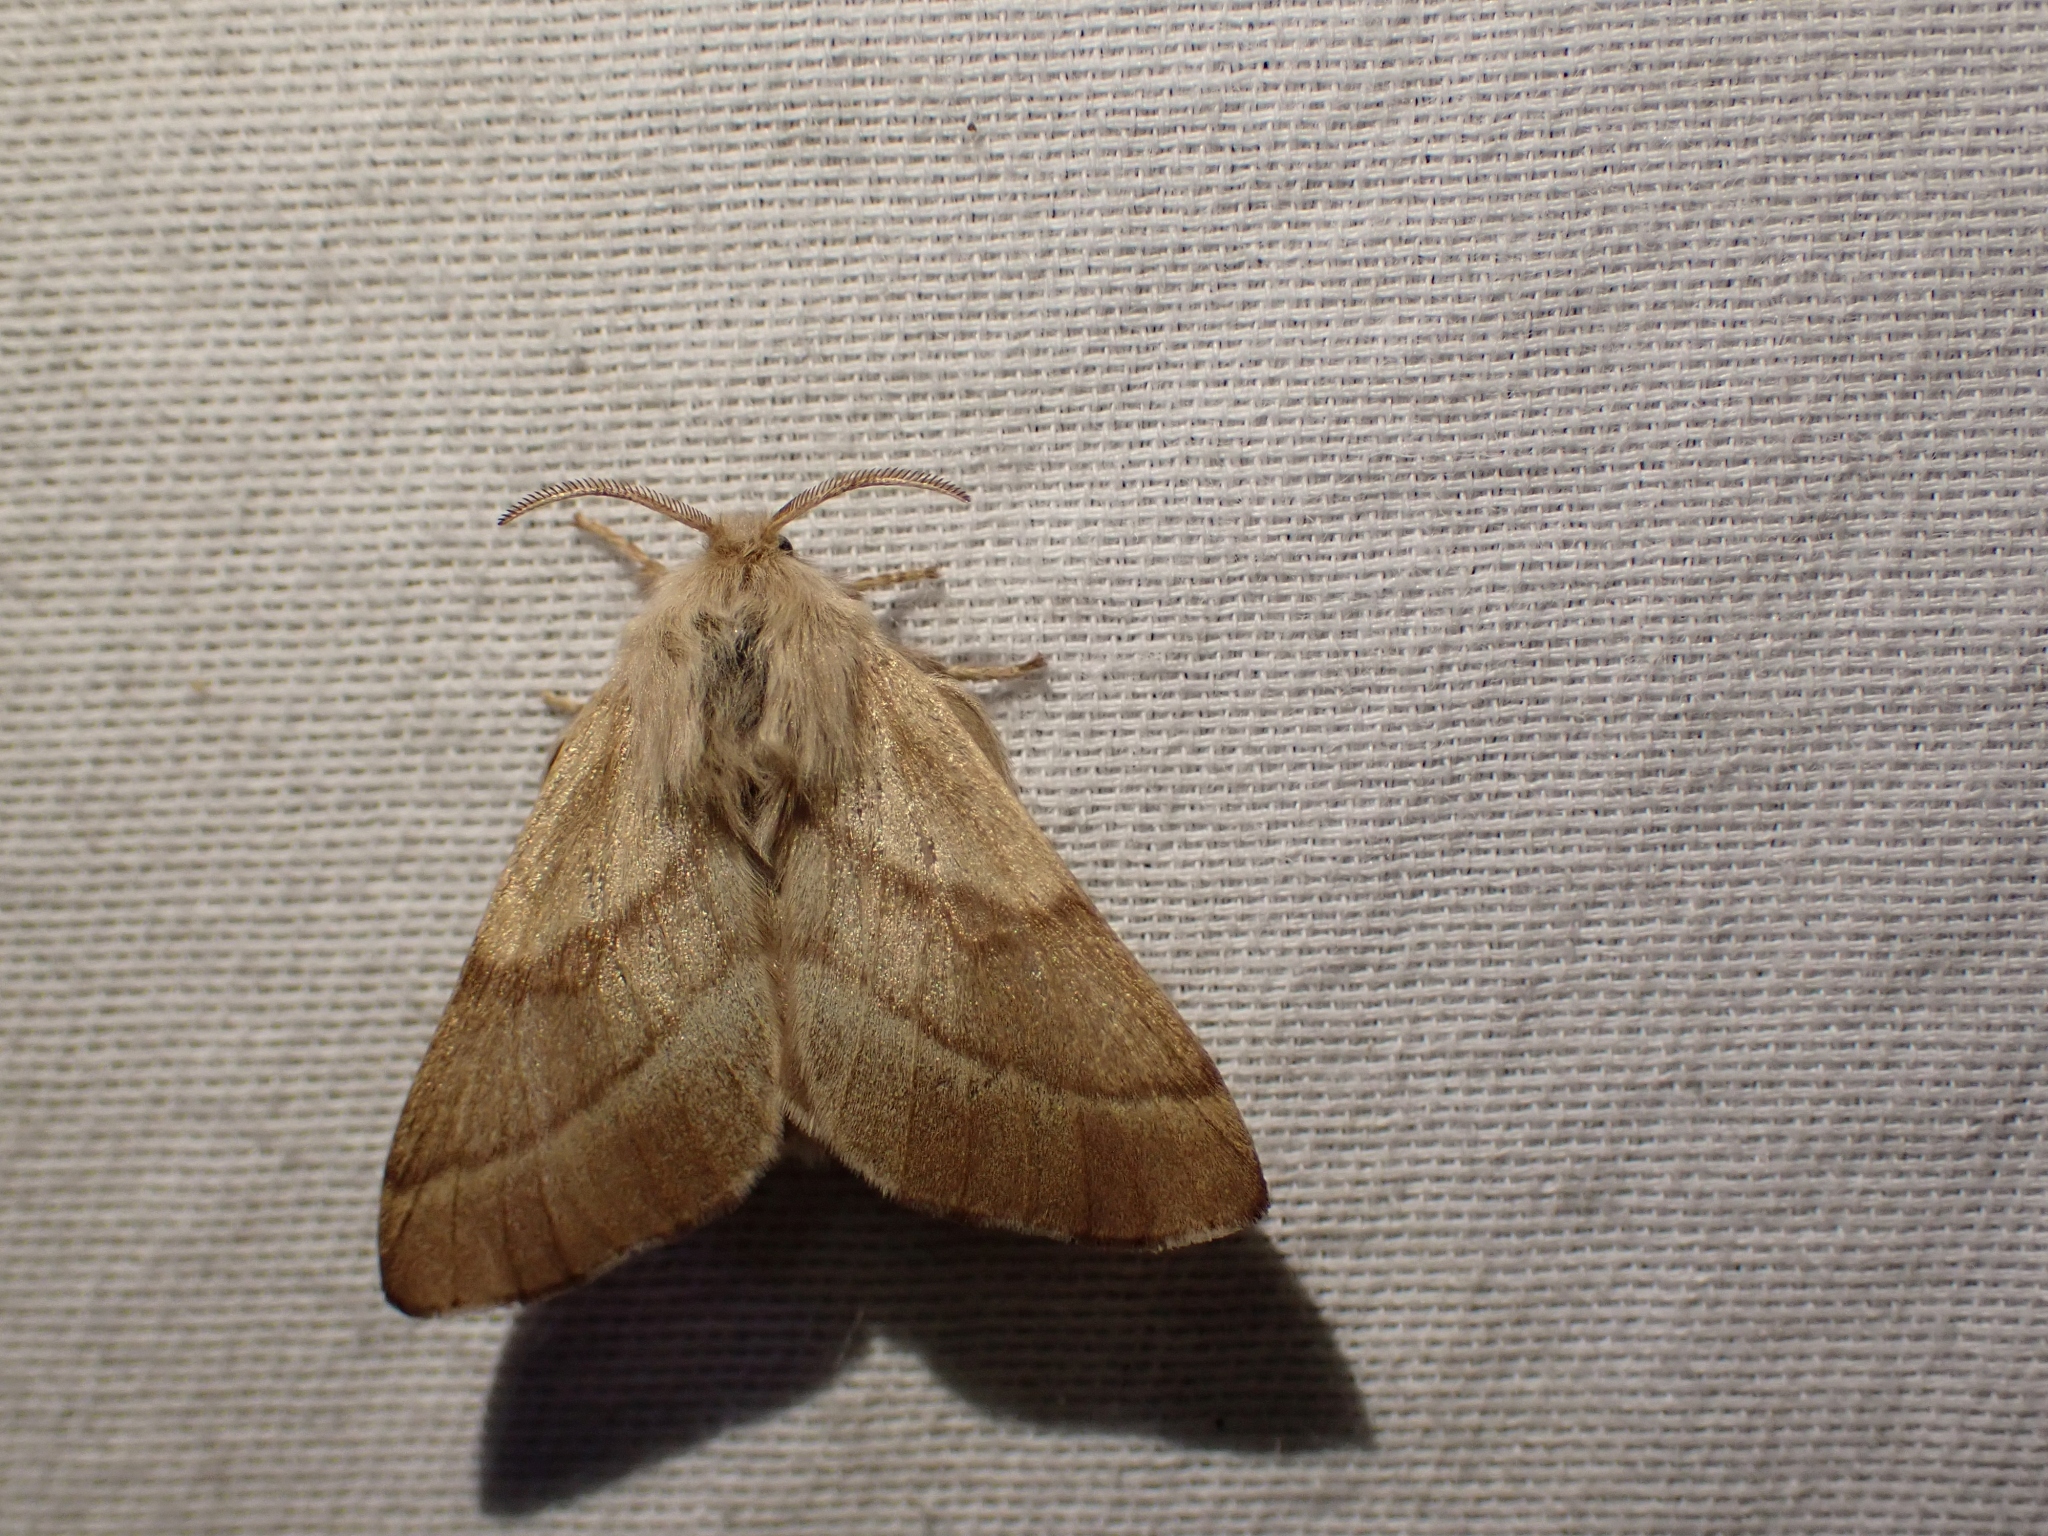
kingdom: Animalia
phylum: Arthropoda
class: Insecta
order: Lepidoptera
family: Lasiocampidae
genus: Malacosoma
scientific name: Malacosoma disstria
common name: Forest tent caterpillar
